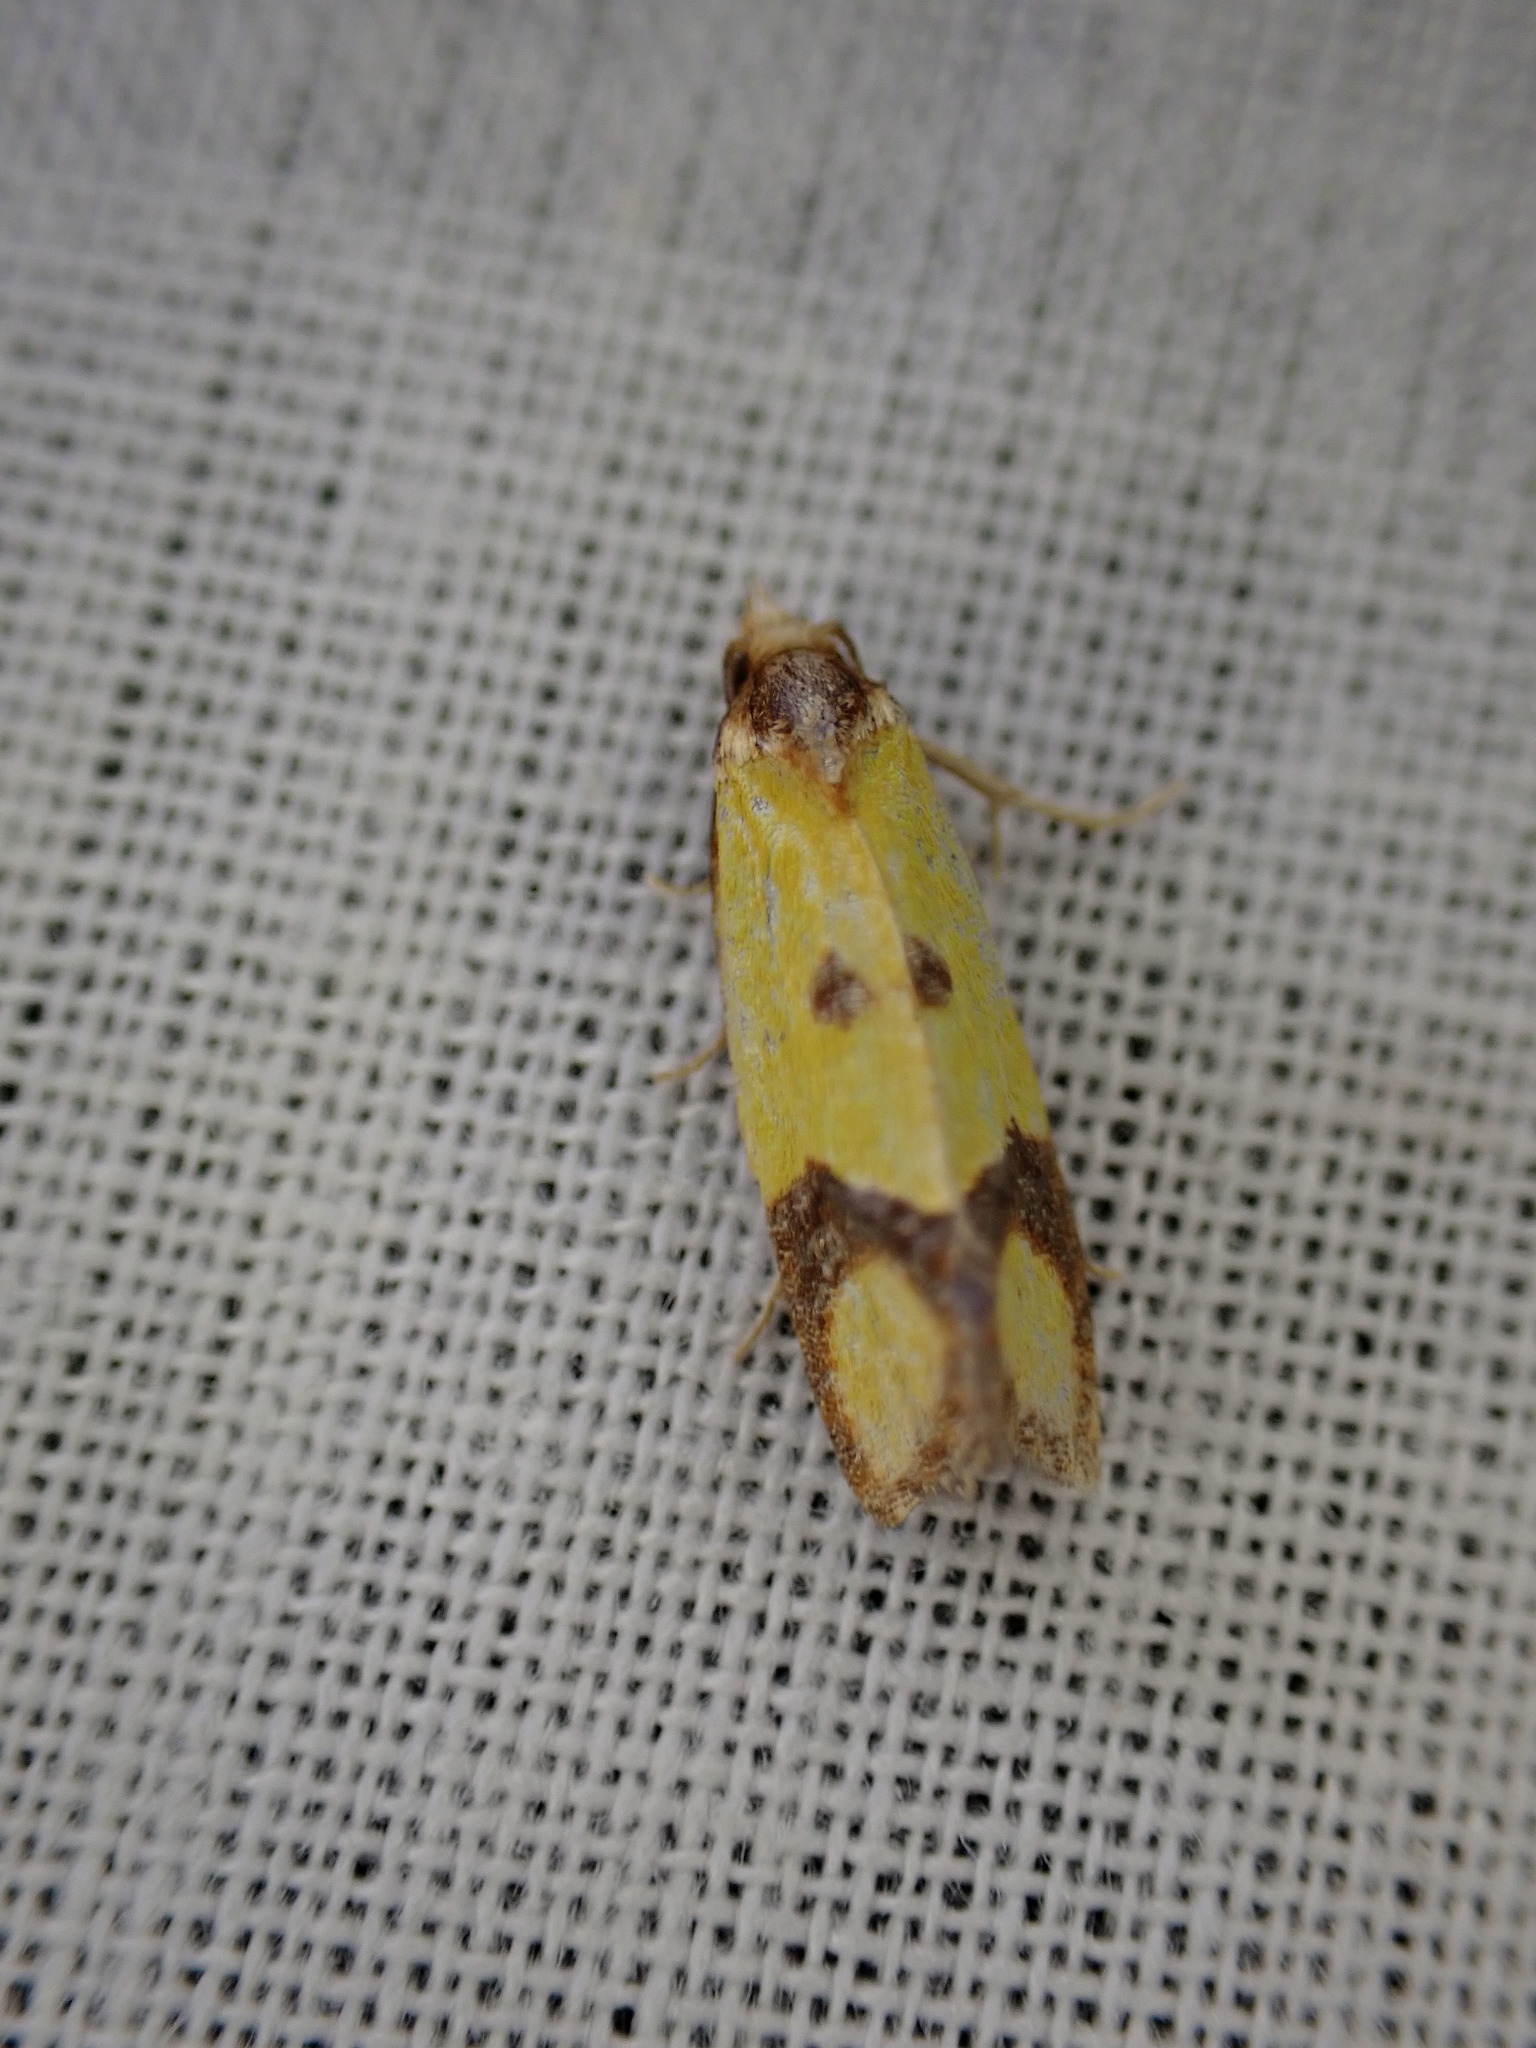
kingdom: Animalia
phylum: Arthropoda
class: Insecta
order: Lepidoptera
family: Tortricidae
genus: Agapeta
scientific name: Agapeta zoegana
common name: Sulfur knapweed root moth
